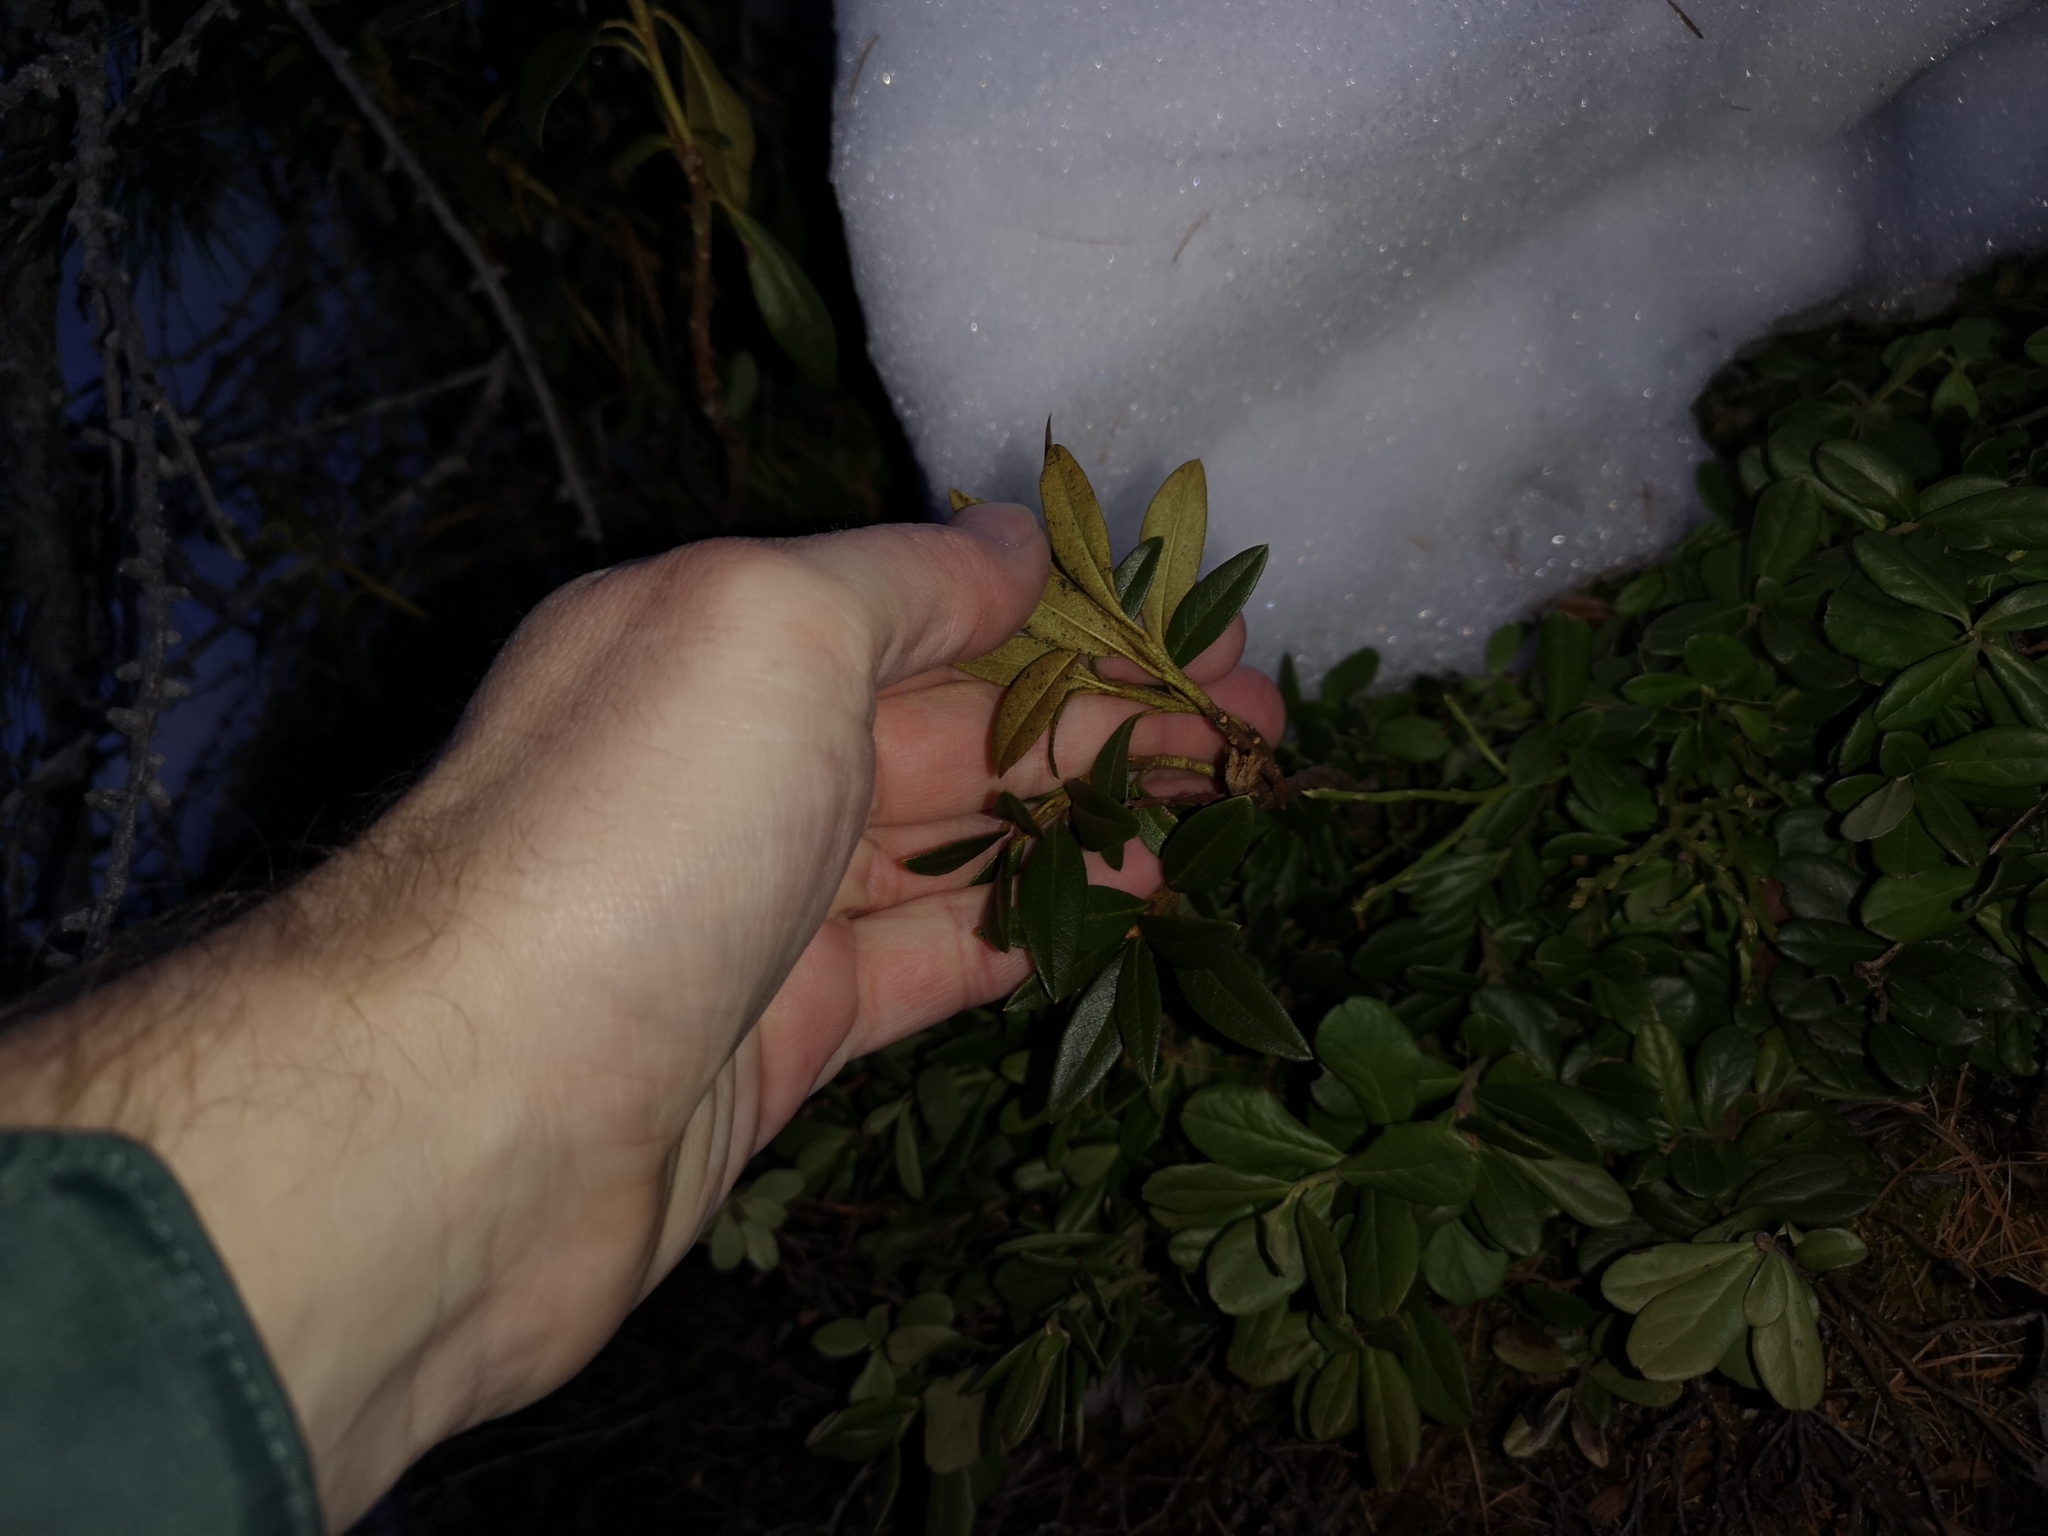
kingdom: Plantae
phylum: Tracheophyta
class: Magnoliopsida
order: Ericales
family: Ericaceae
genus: Rhododendron
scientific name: Rhododendron ferrugineum
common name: Alpenrose
